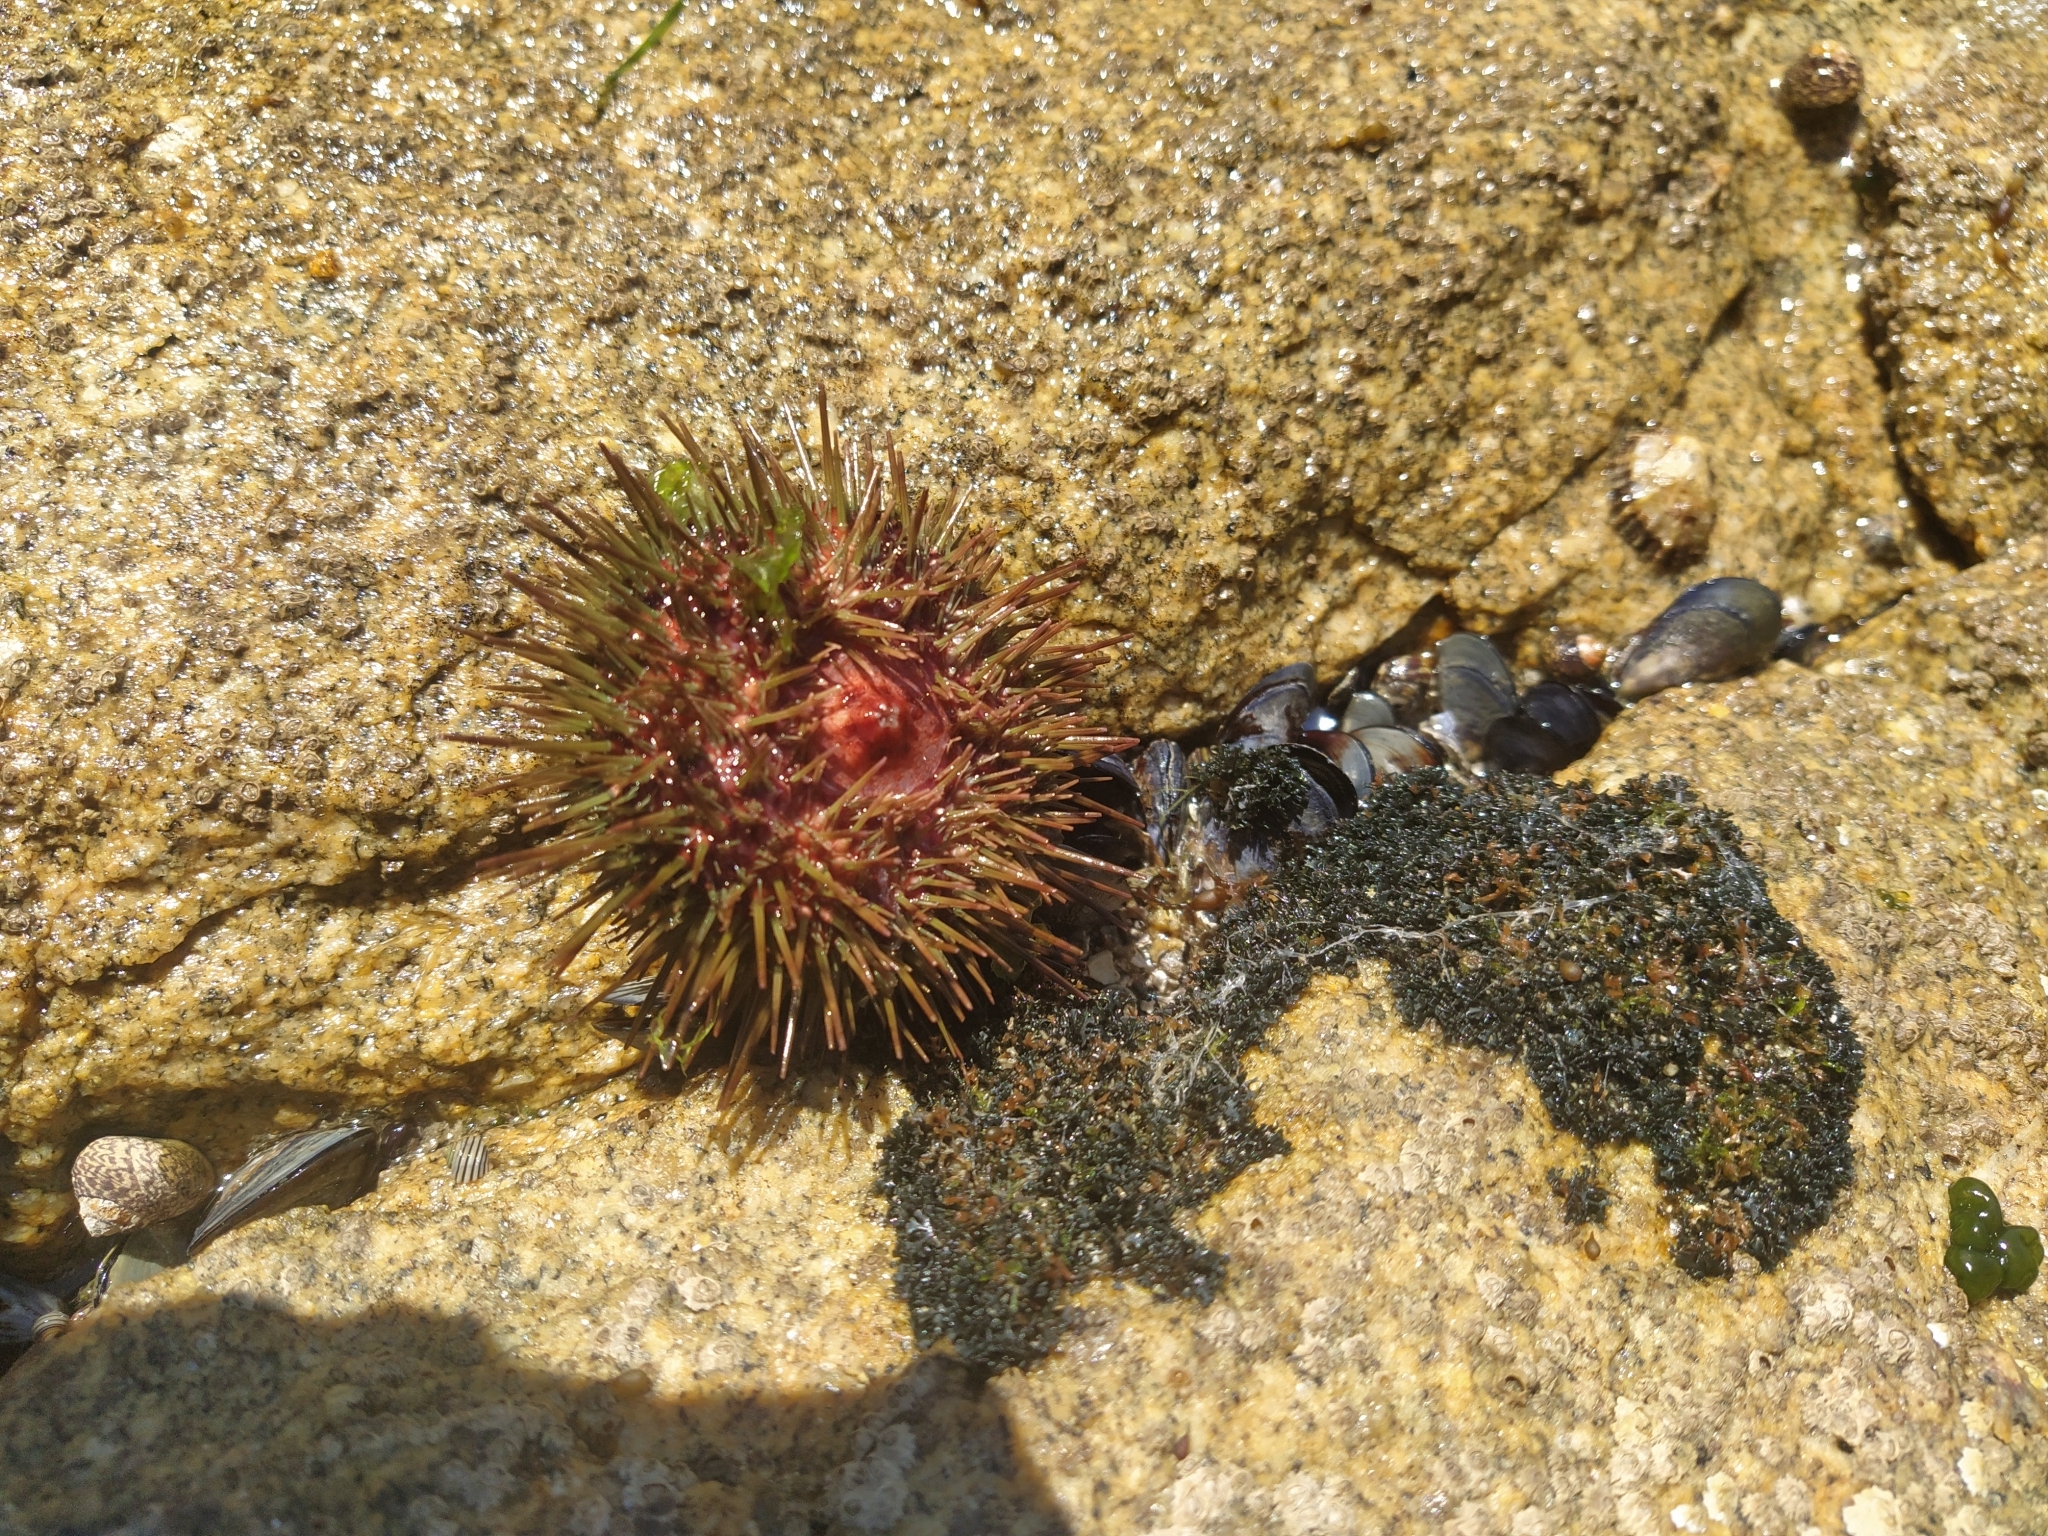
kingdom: Animalia
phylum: Echinodermata
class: Echinoidea
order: Camarodonta
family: Parechinidae
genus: Paracentrotus
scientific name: Paracentrotus lividus
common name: Purple sea urchin
